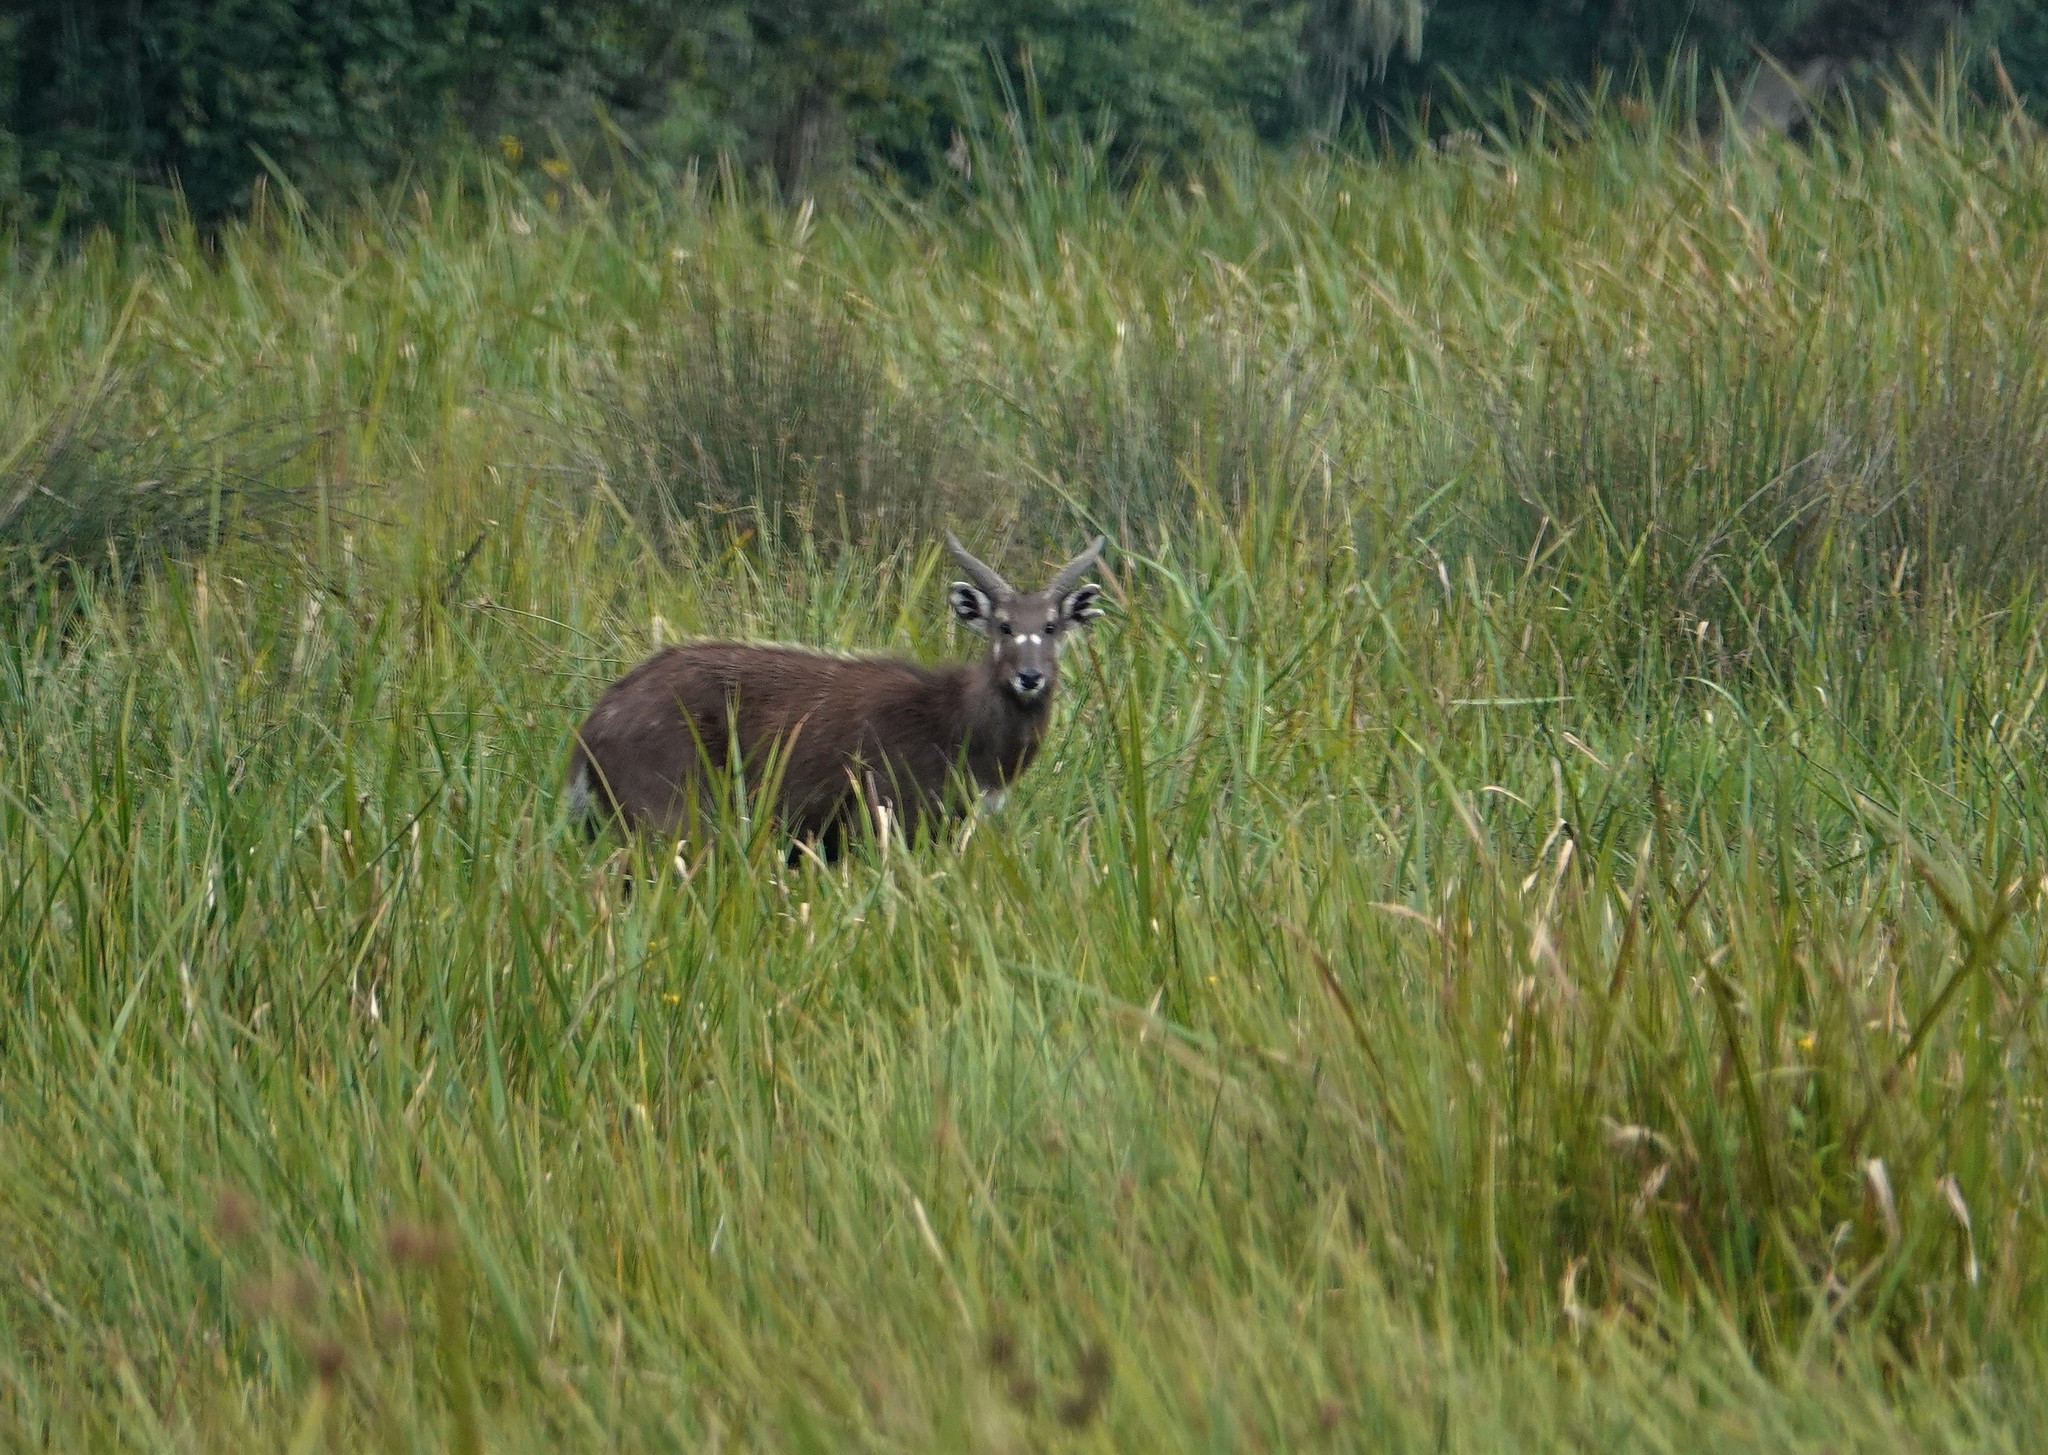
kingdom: Animalia
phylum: Chordata
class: Mammalia
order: Artiodactyla
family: Bovidae
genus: Tragelaphus
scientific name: Tragelaphus spekii
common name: Sitatunga
